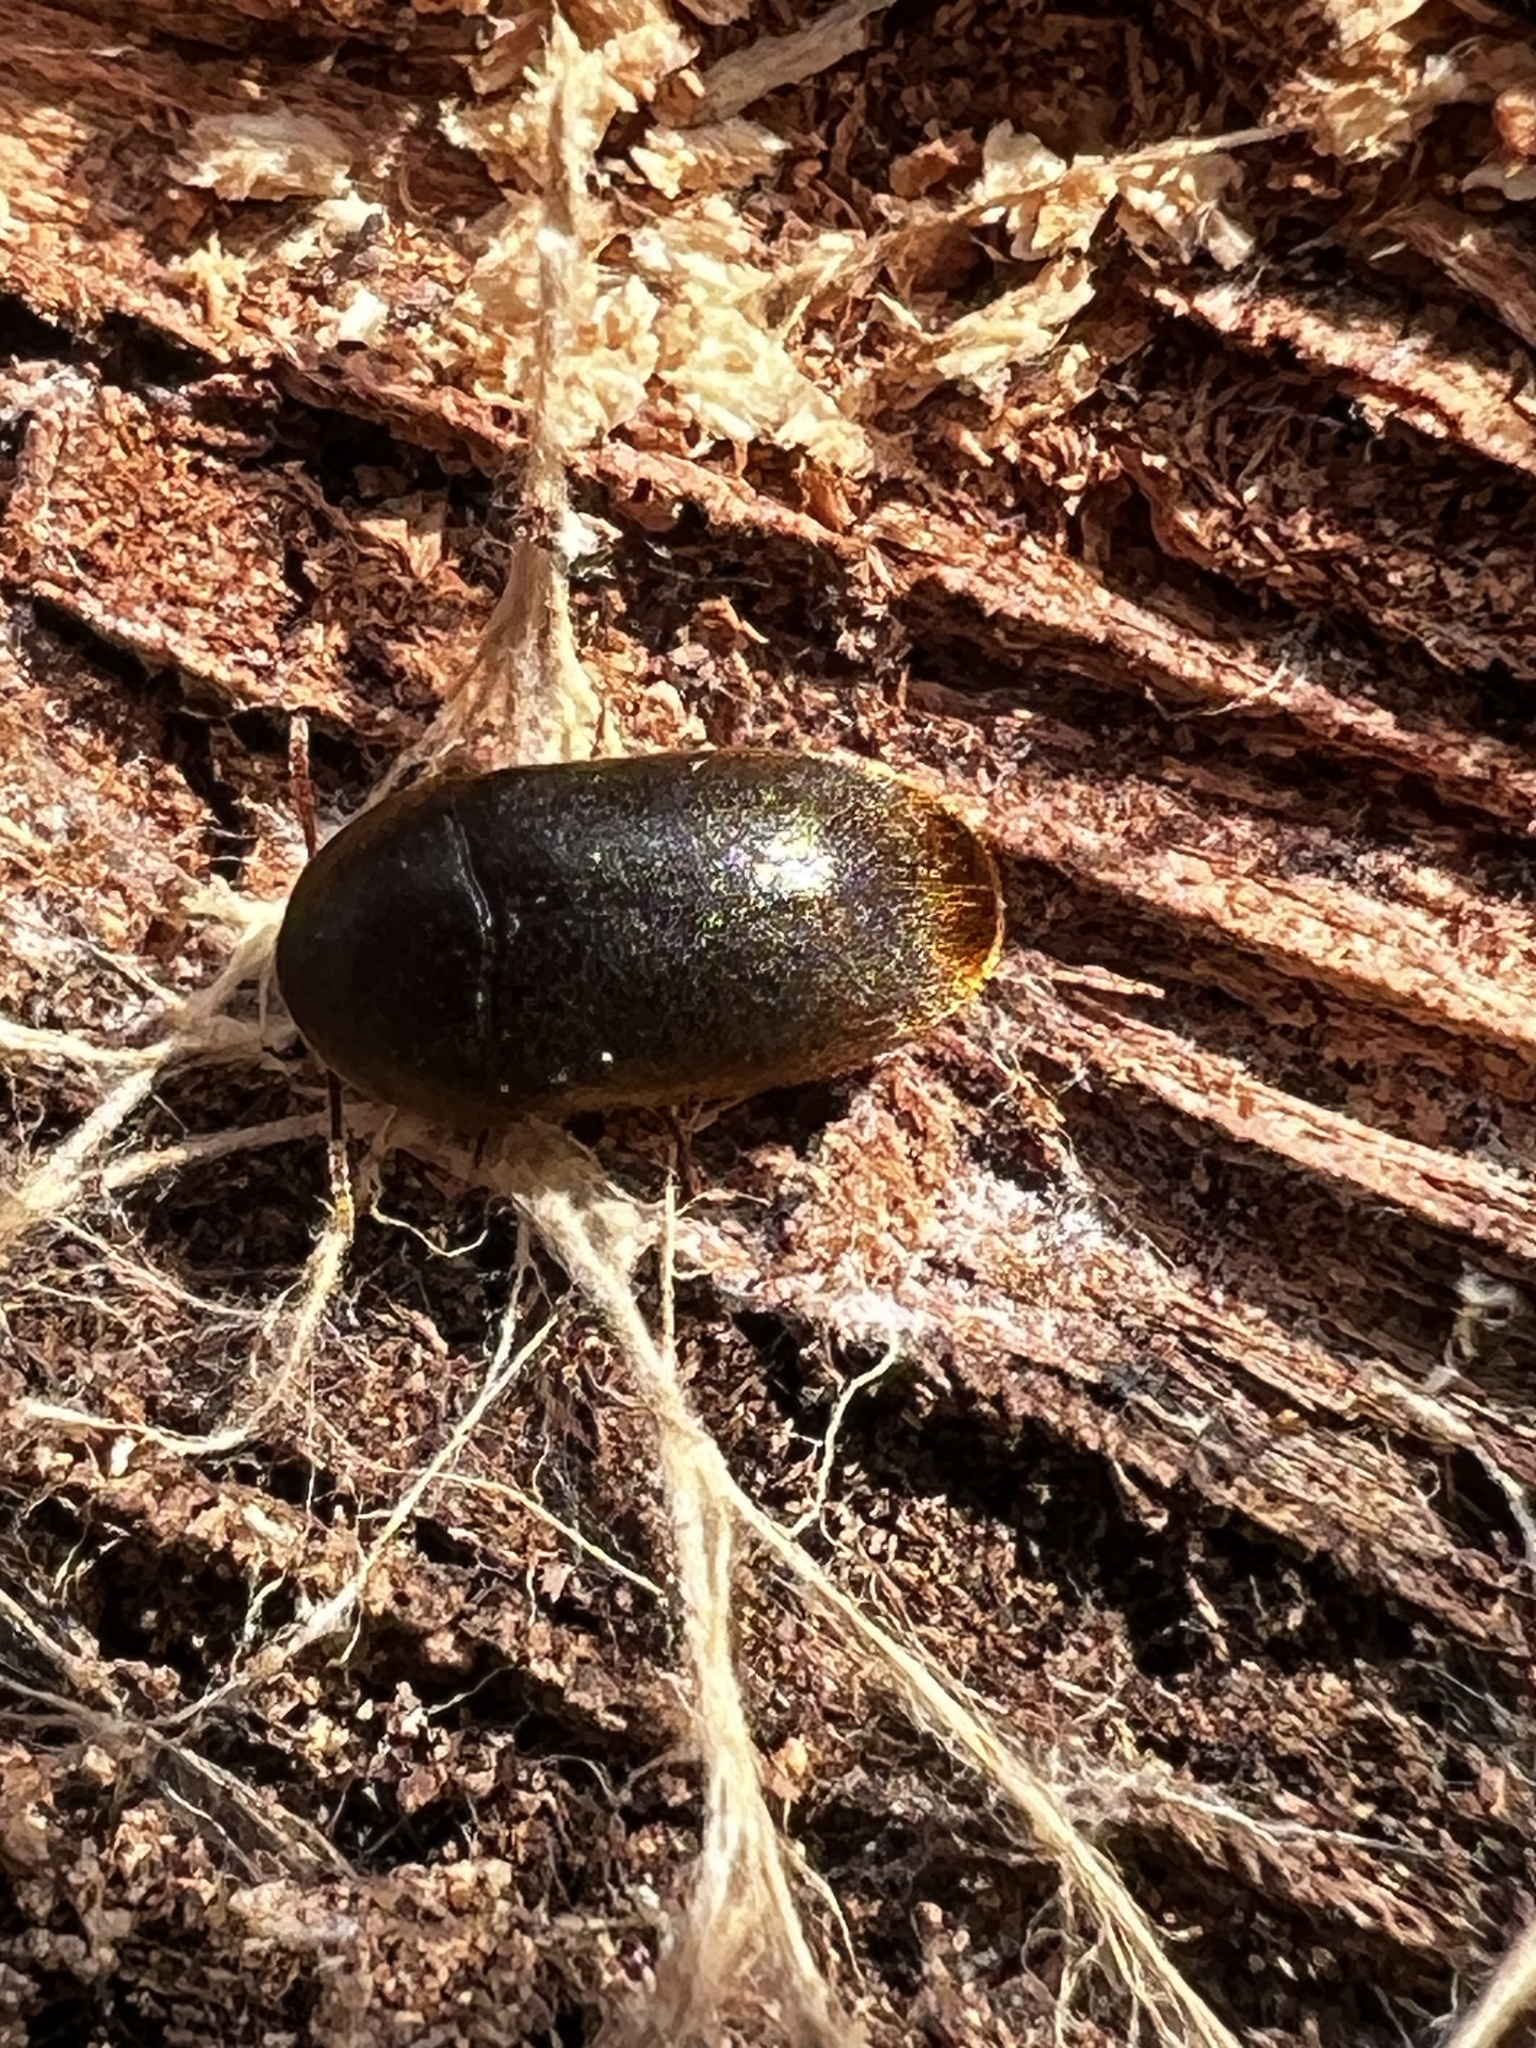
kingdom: Animalia
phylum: Arthropoda
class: Insecta
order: Coleoptera
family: Tetratomidae
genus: Eustrophus
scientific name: Eustrophus tomentosus
